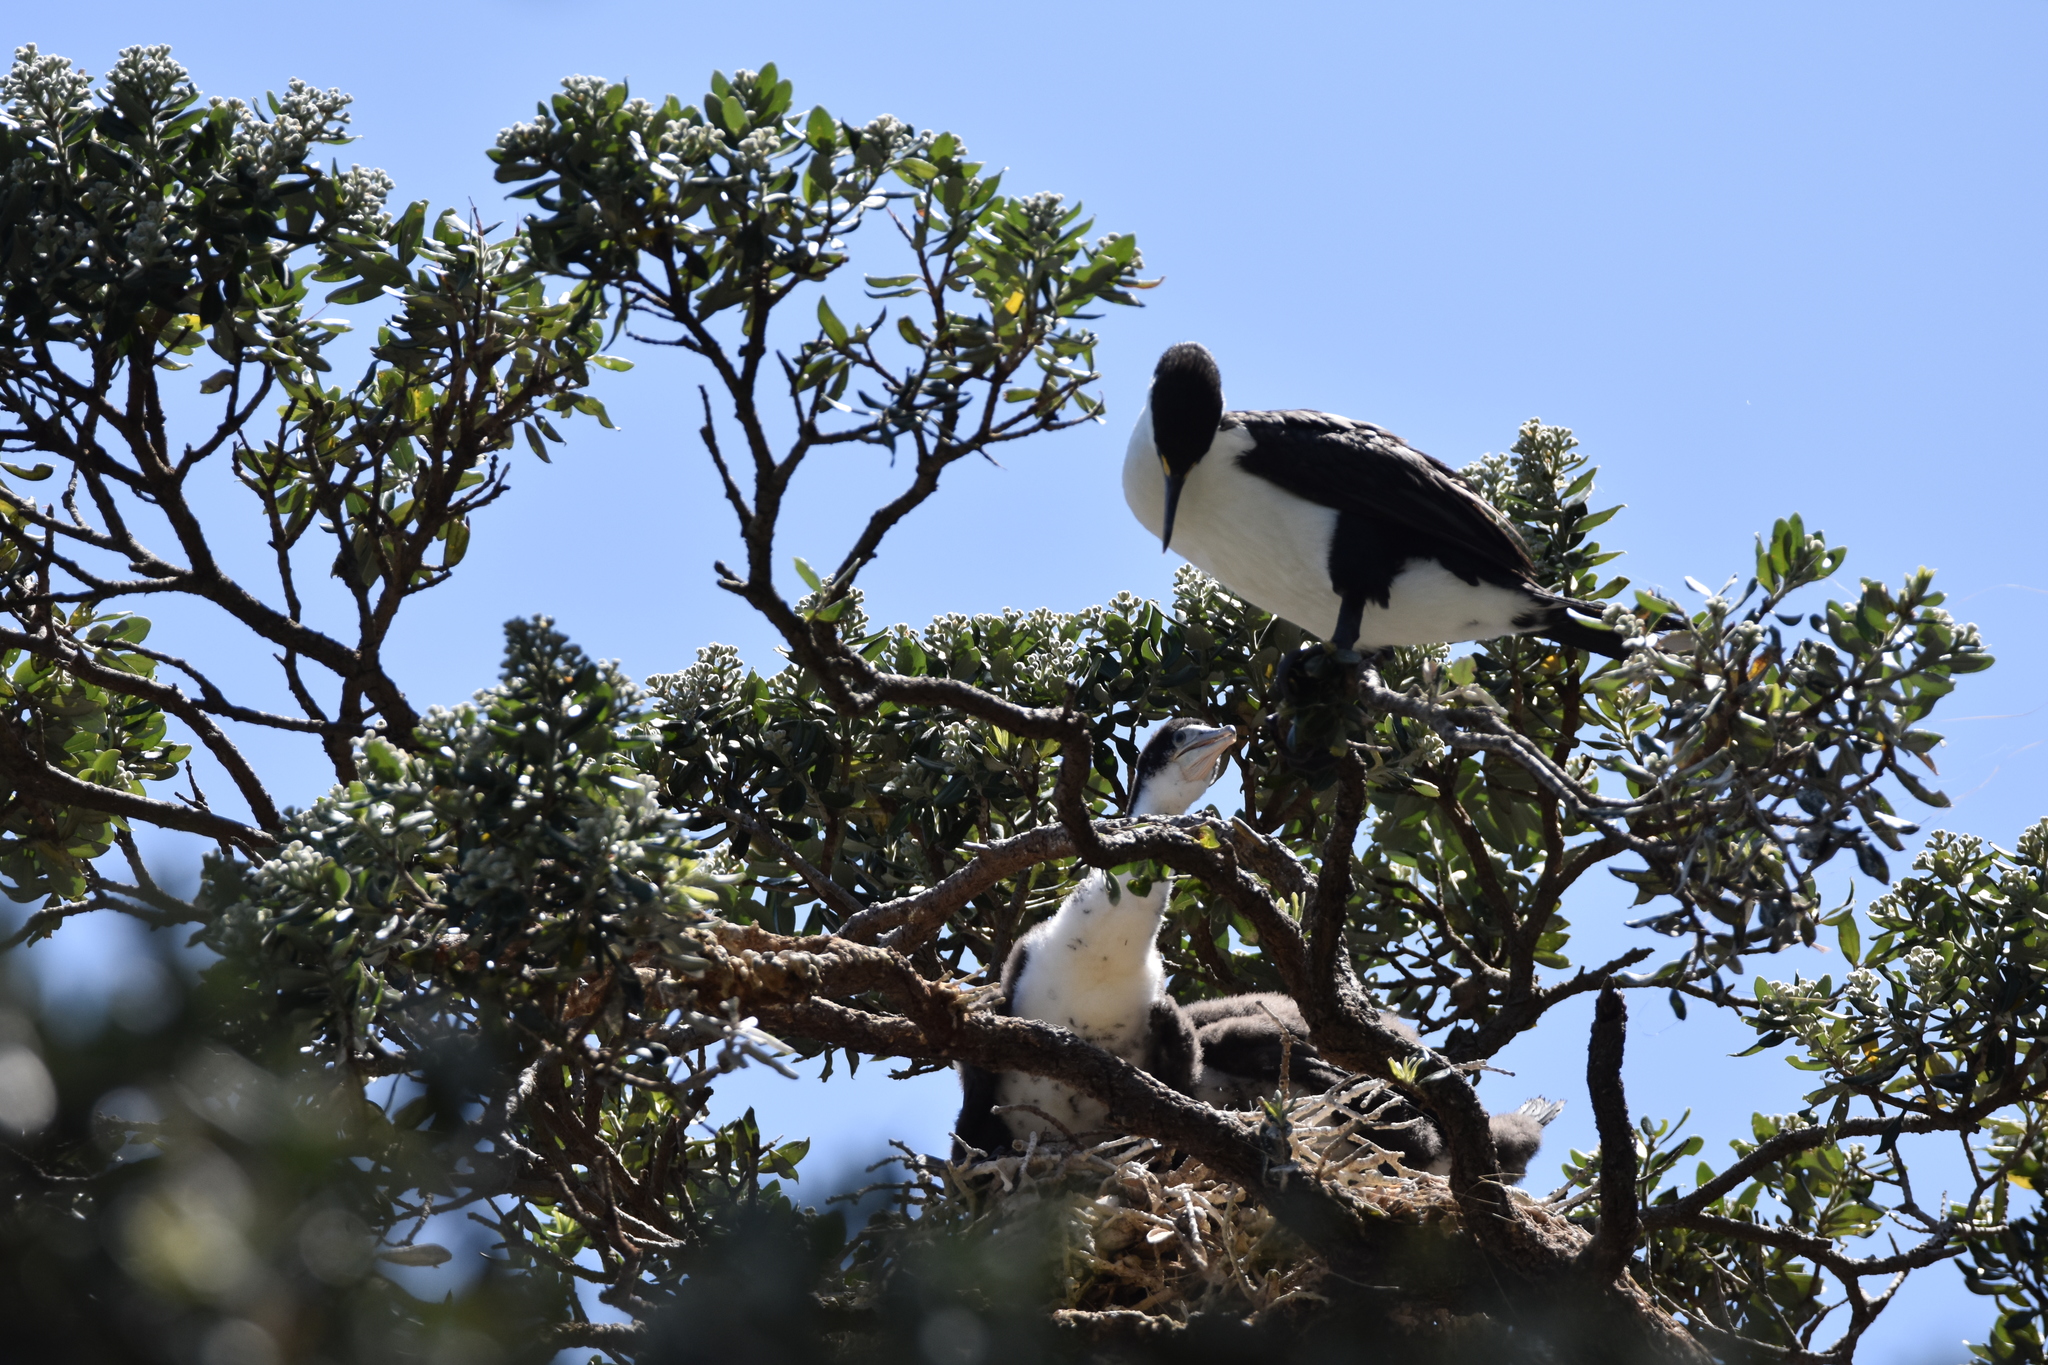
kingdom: Animalia
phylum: Chordata
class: Aves
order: Suliformes
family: Phalacrocoracidae
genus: Phalacrocorax
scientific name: Phalacrocorax varius
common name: Pied cormorant
